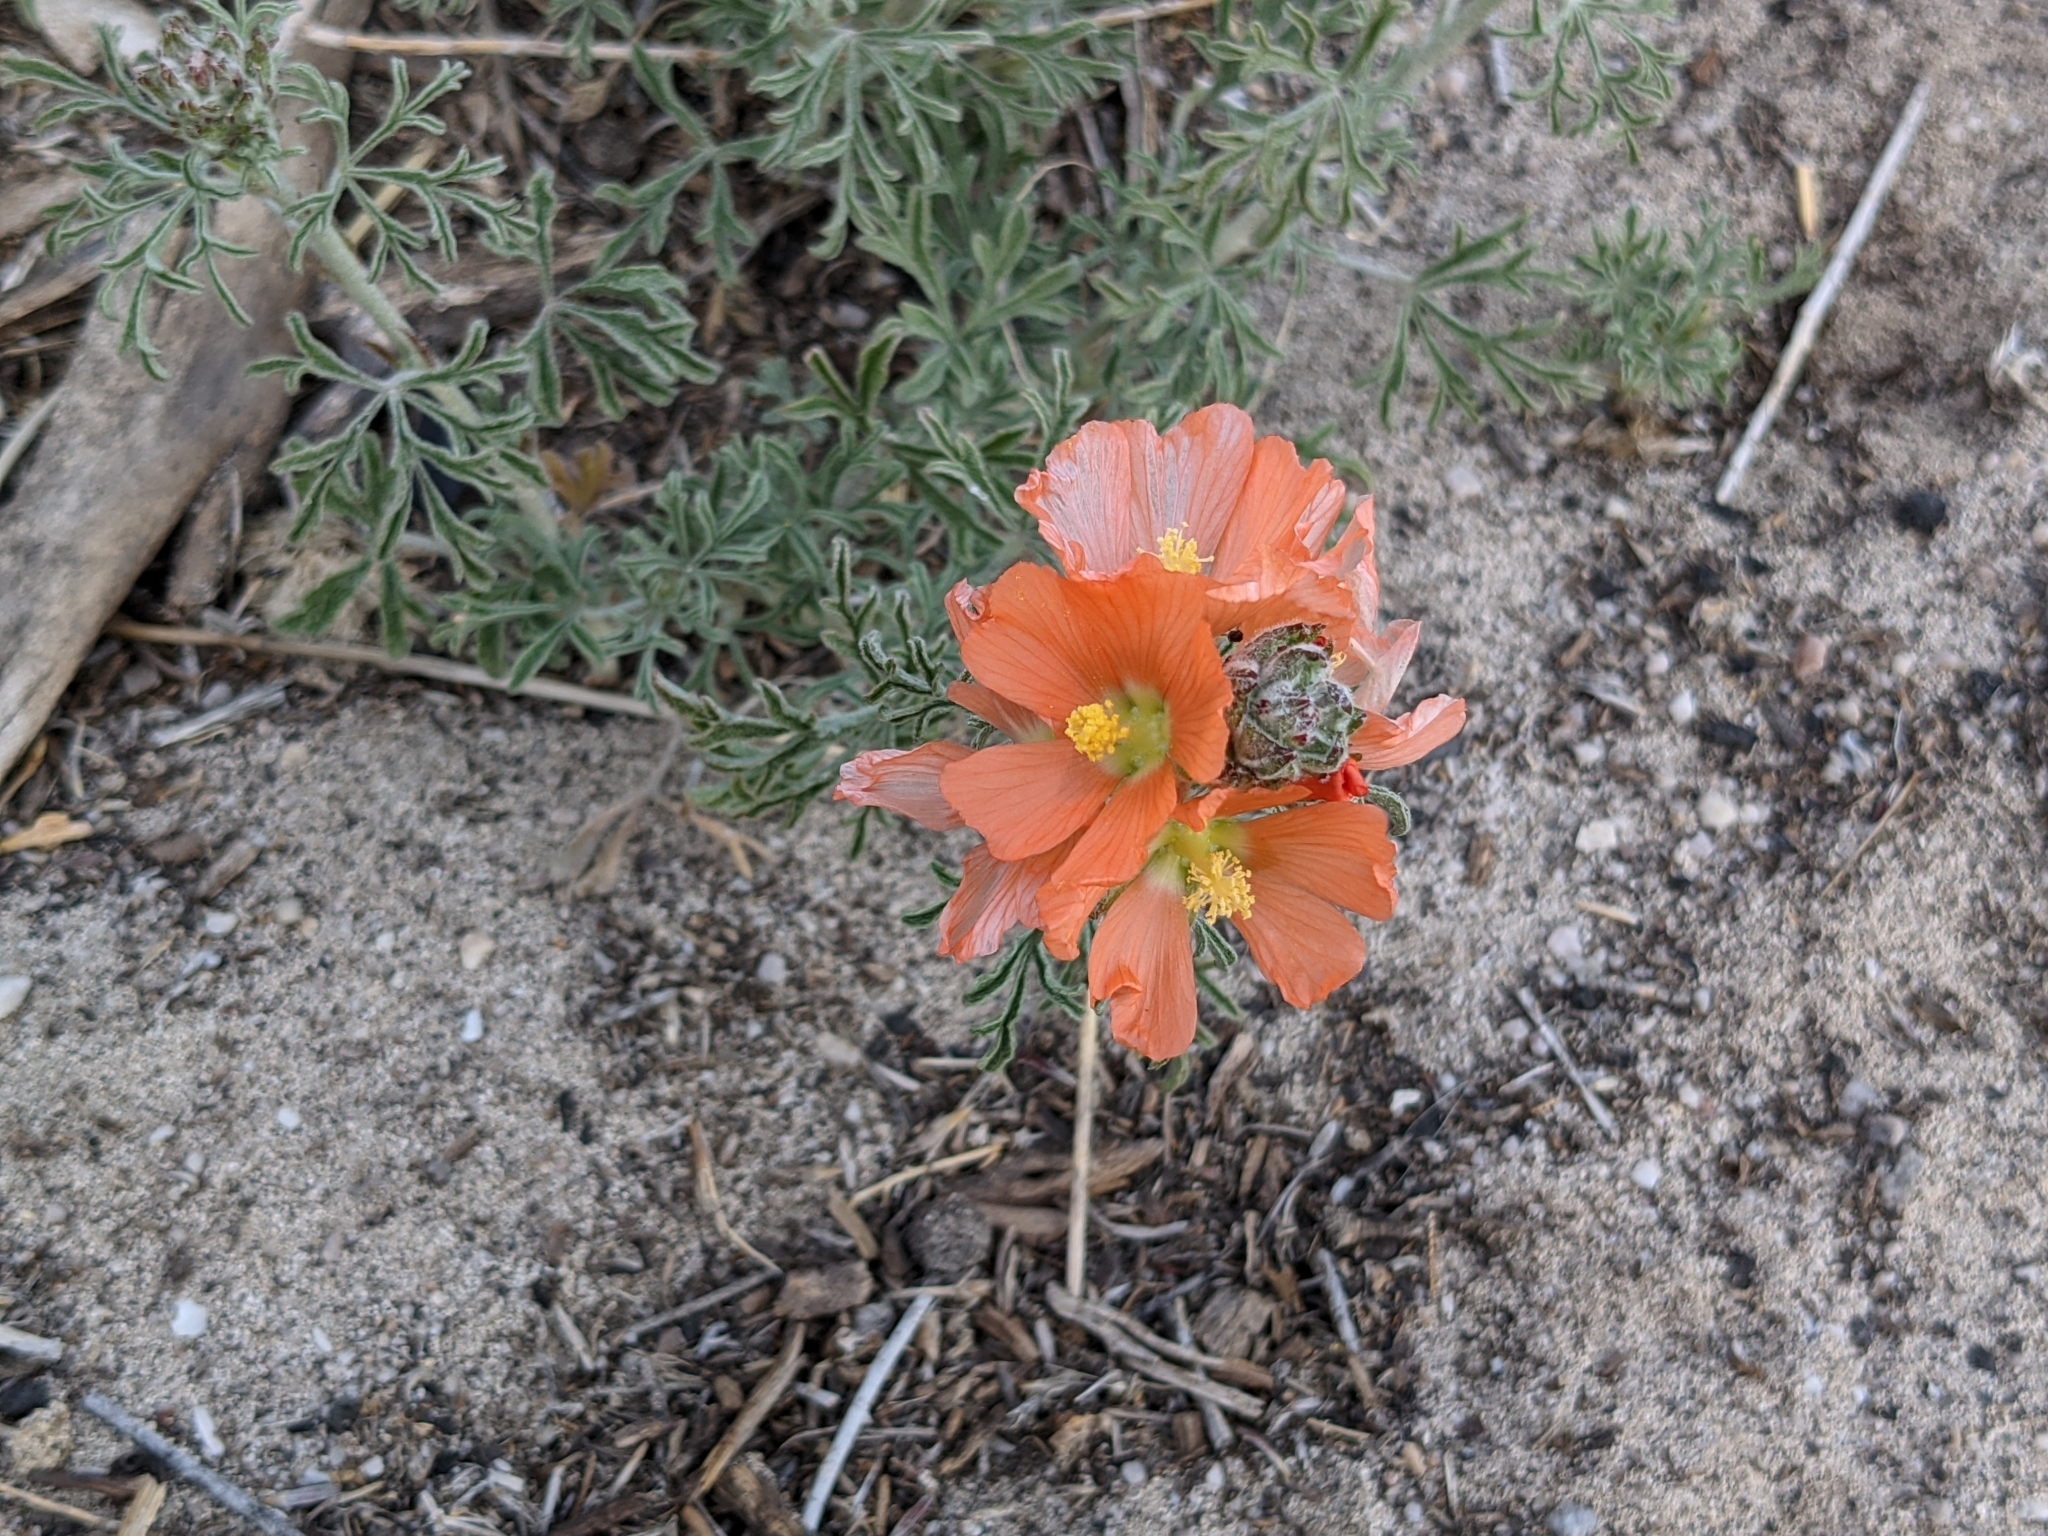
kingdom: Plantae
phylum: Tracheophyta
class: Magnoliopsida
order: Malvales
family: Malvaceae
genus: Sphaeralcea
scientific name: Sphaeralcea coccinea
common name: Moss-rose
